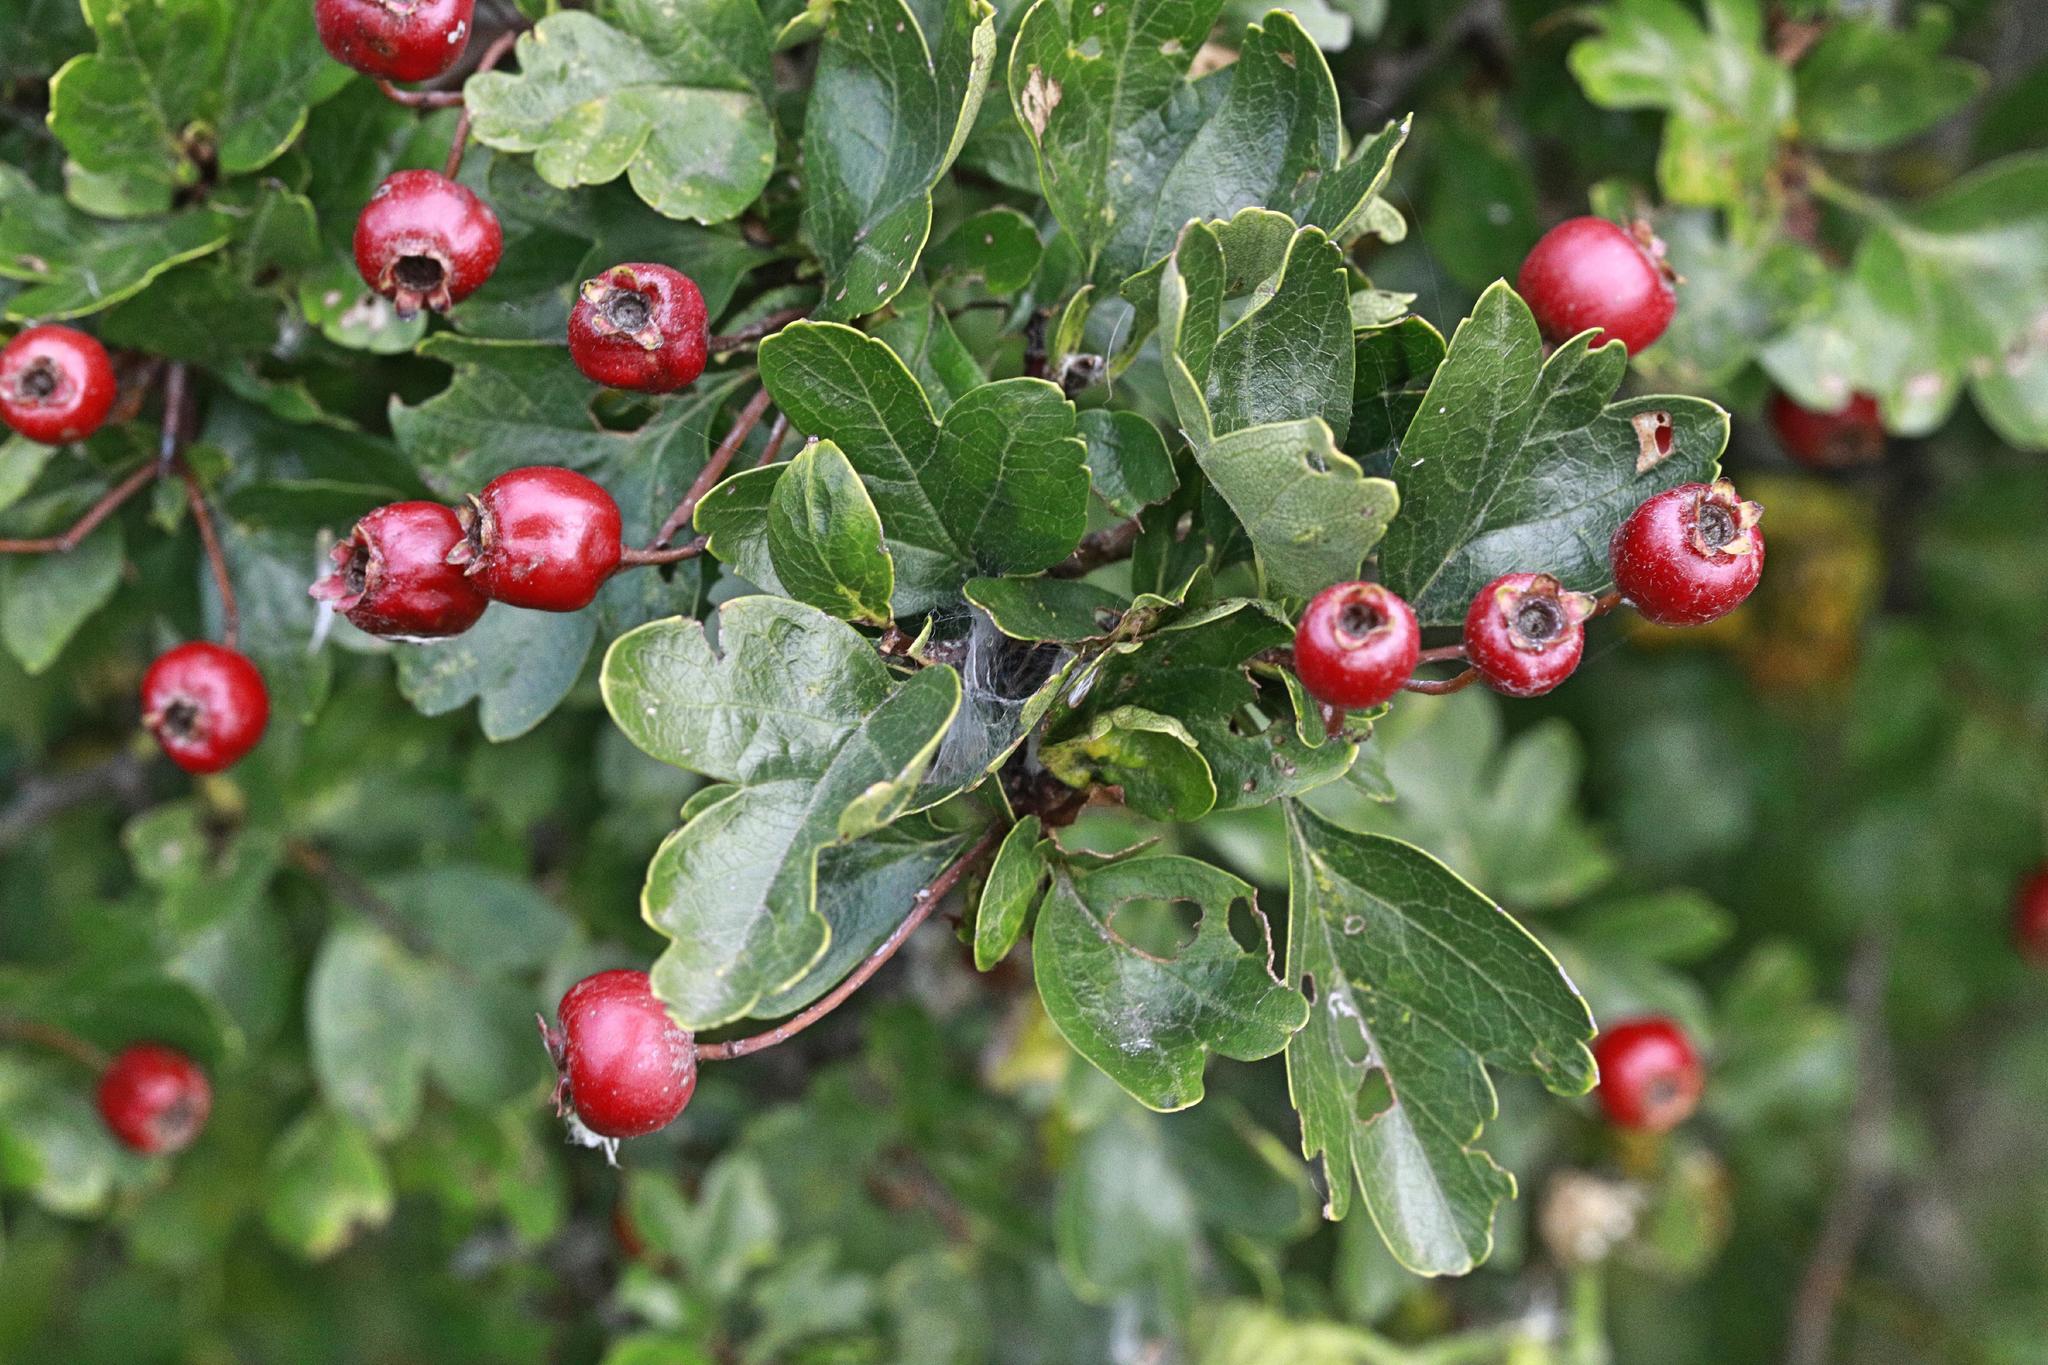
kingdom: Plantae
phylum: Tracheophyta
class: Magnoliopsida
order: Rosales
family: Rosaceae
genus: Crataegus
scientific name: Crataegus monogyna
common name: Hawthorn
